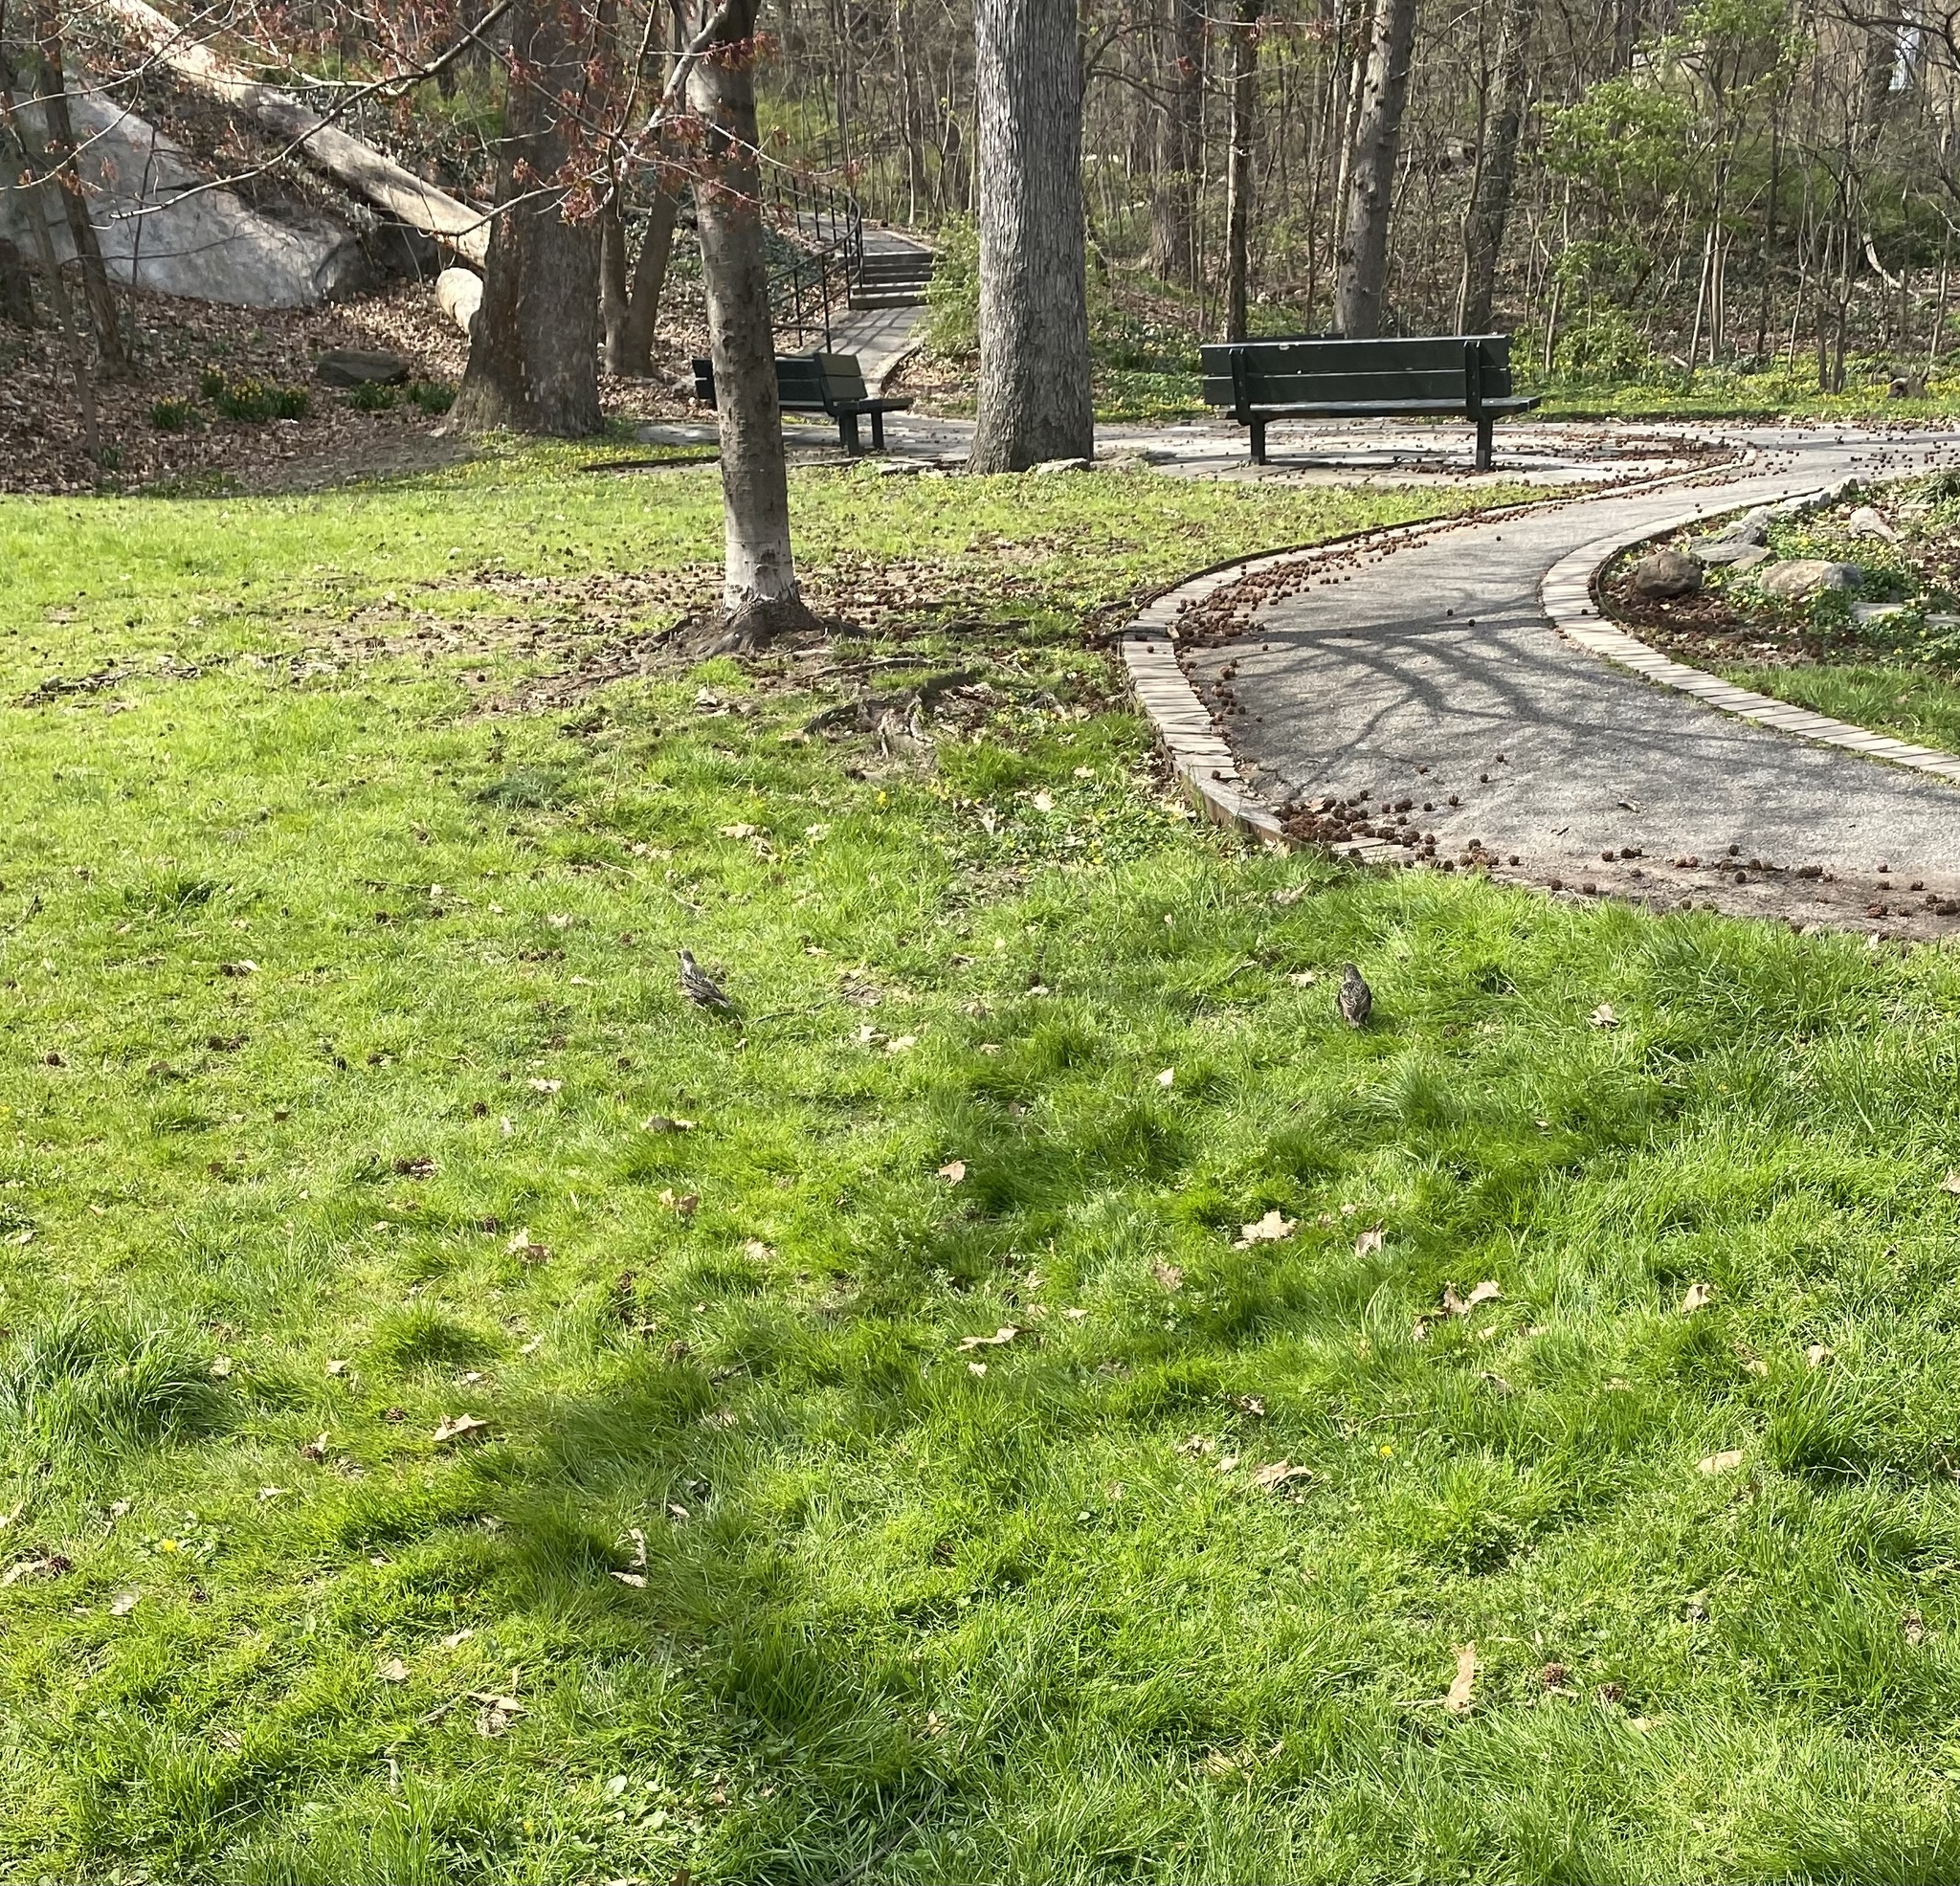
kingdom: Animalia
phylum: Chordata
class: Aves
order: Passeriformes
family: Sturnidae
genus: Sturnus
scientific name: Sturnus vulgaris
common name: Common starling
